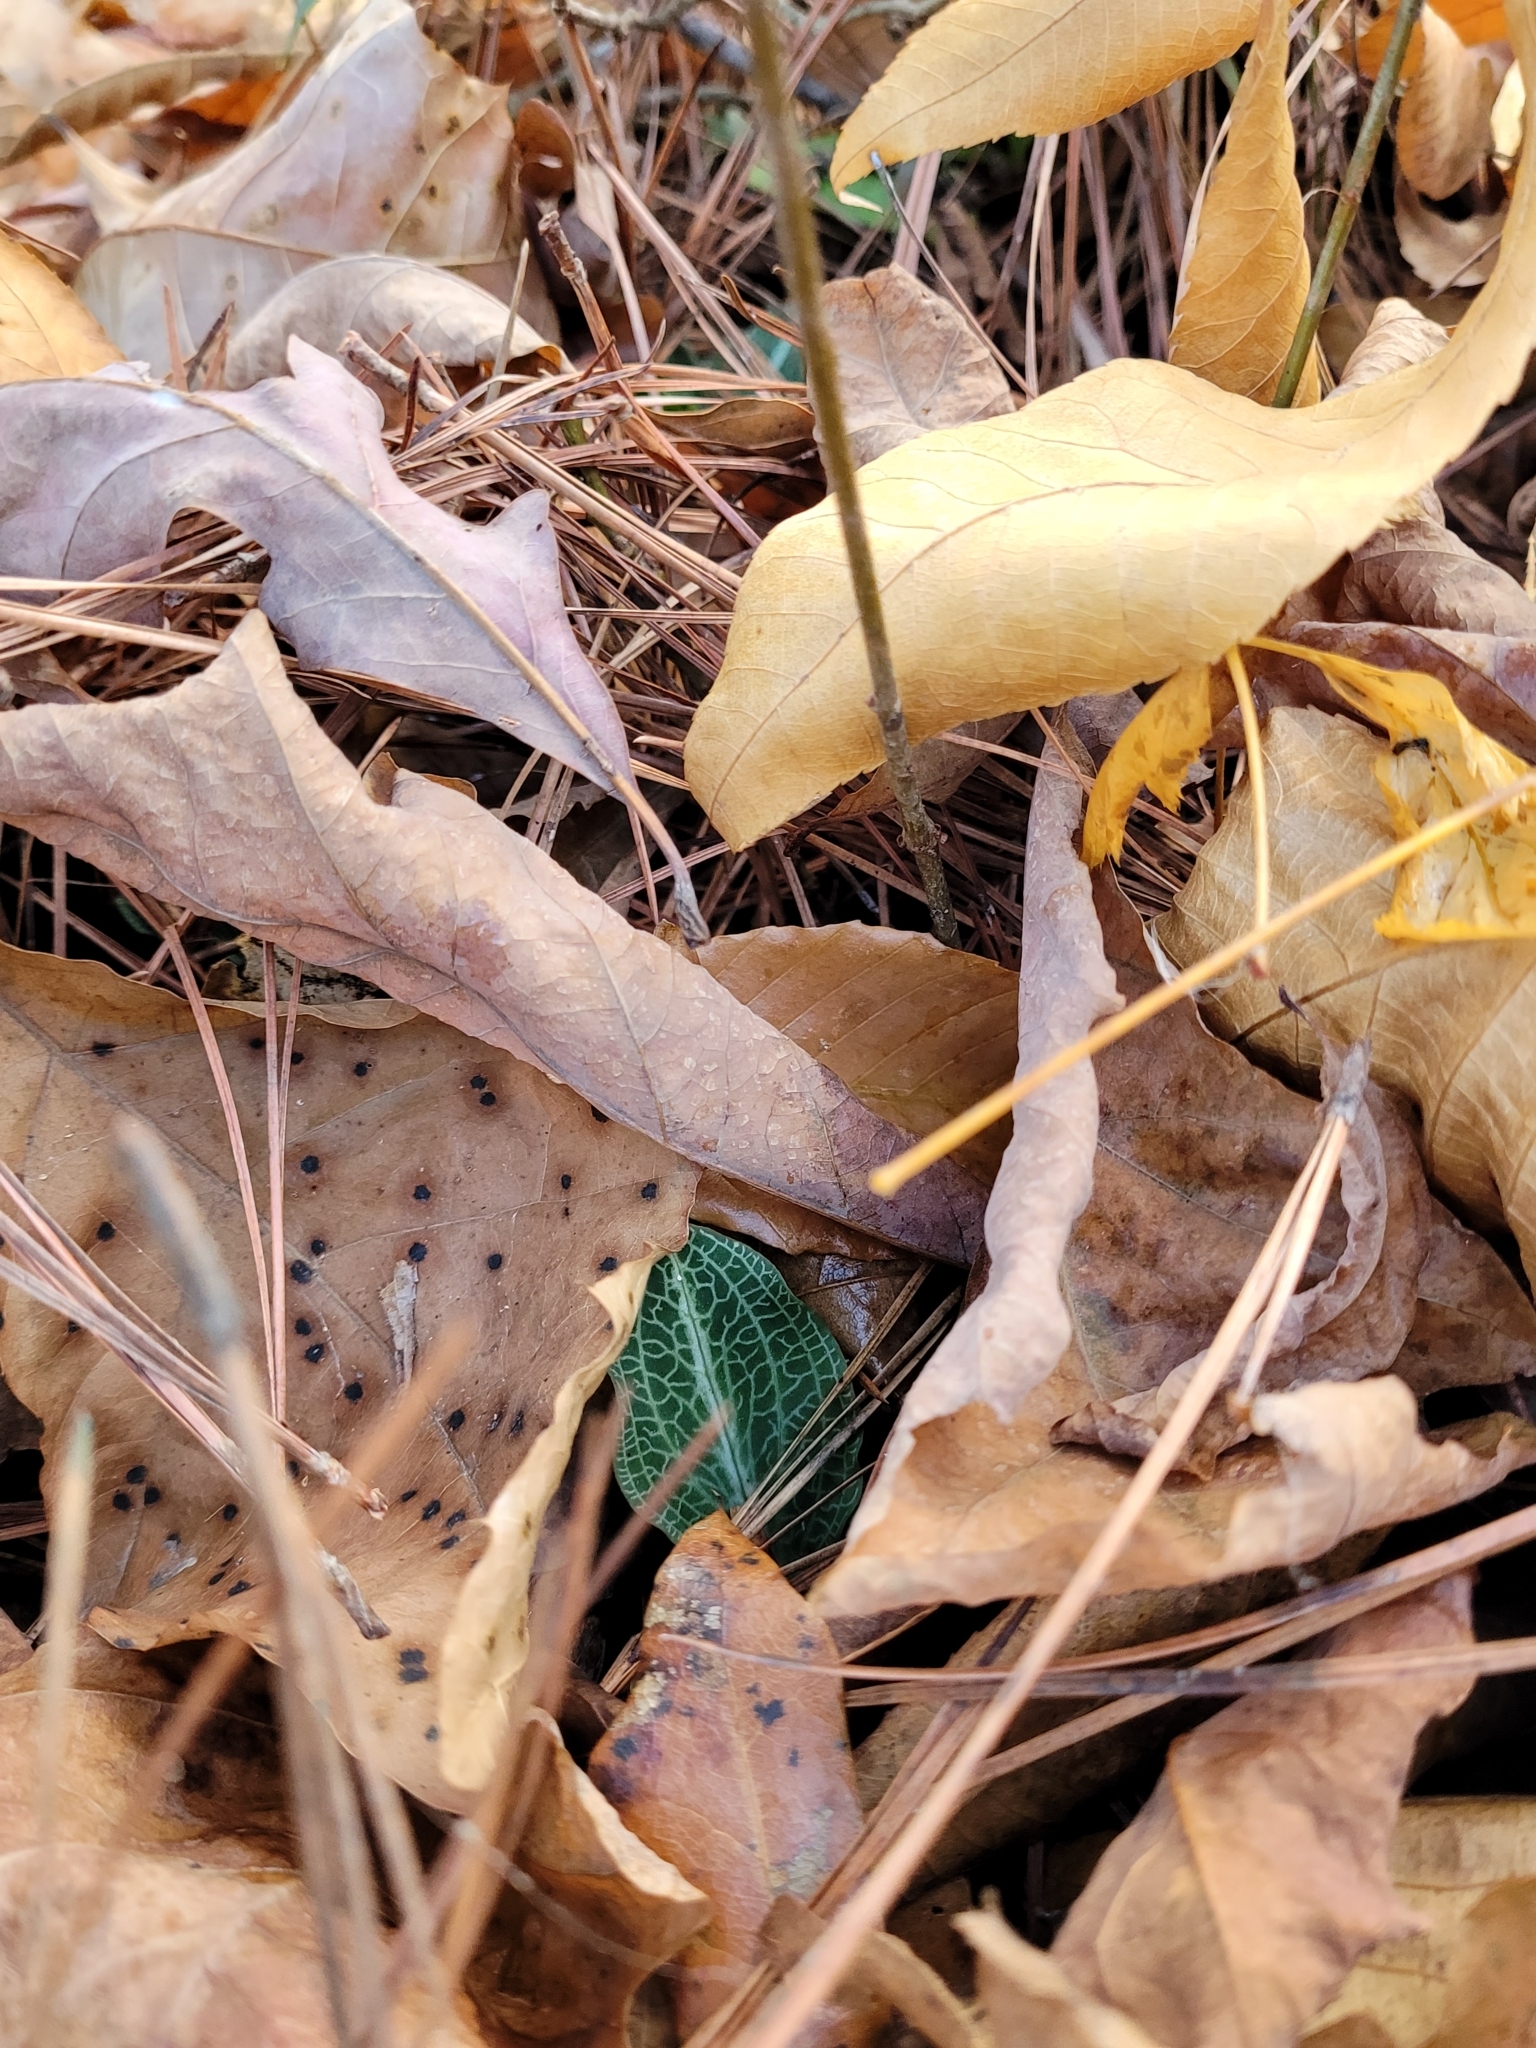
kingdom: Plantae
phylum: Tracheophyta
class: Liliopsida
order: Asparagales
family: Orchidaceae
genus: Goodyera
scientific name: Goodyera pubescens
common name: Downy rattlesnake-plantain
